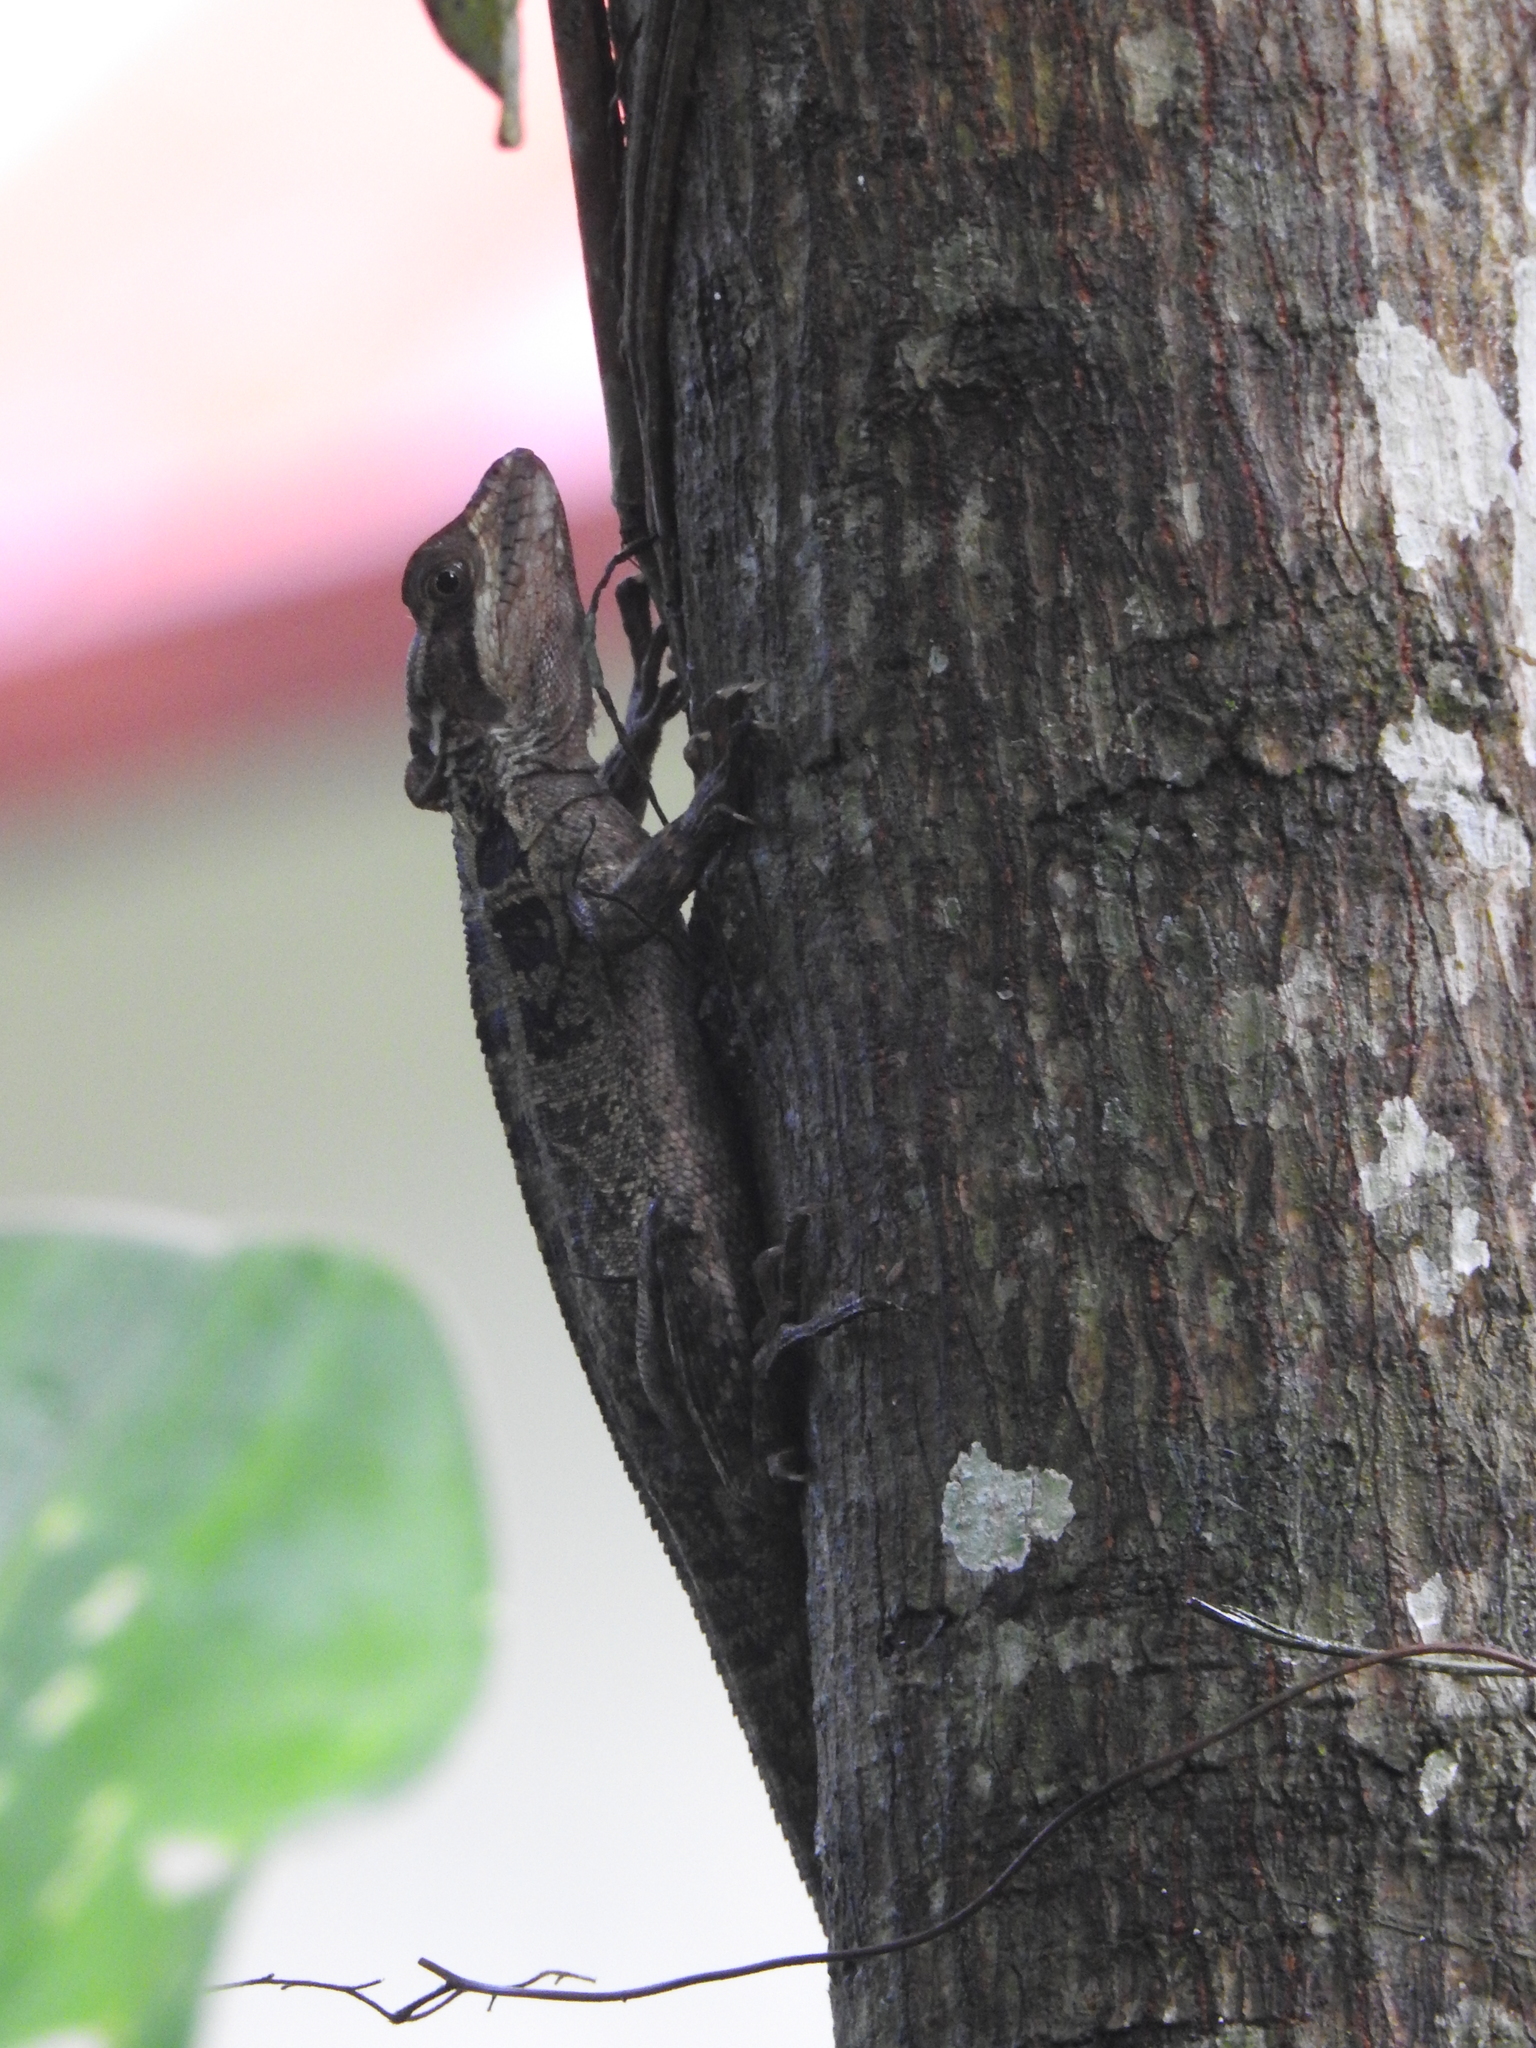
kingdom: Animalia
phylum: Chordata
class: Squamata
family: Corytophanidae
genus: Basiliscus
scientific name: Basiliscus vittatus
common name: Brown basilisk
